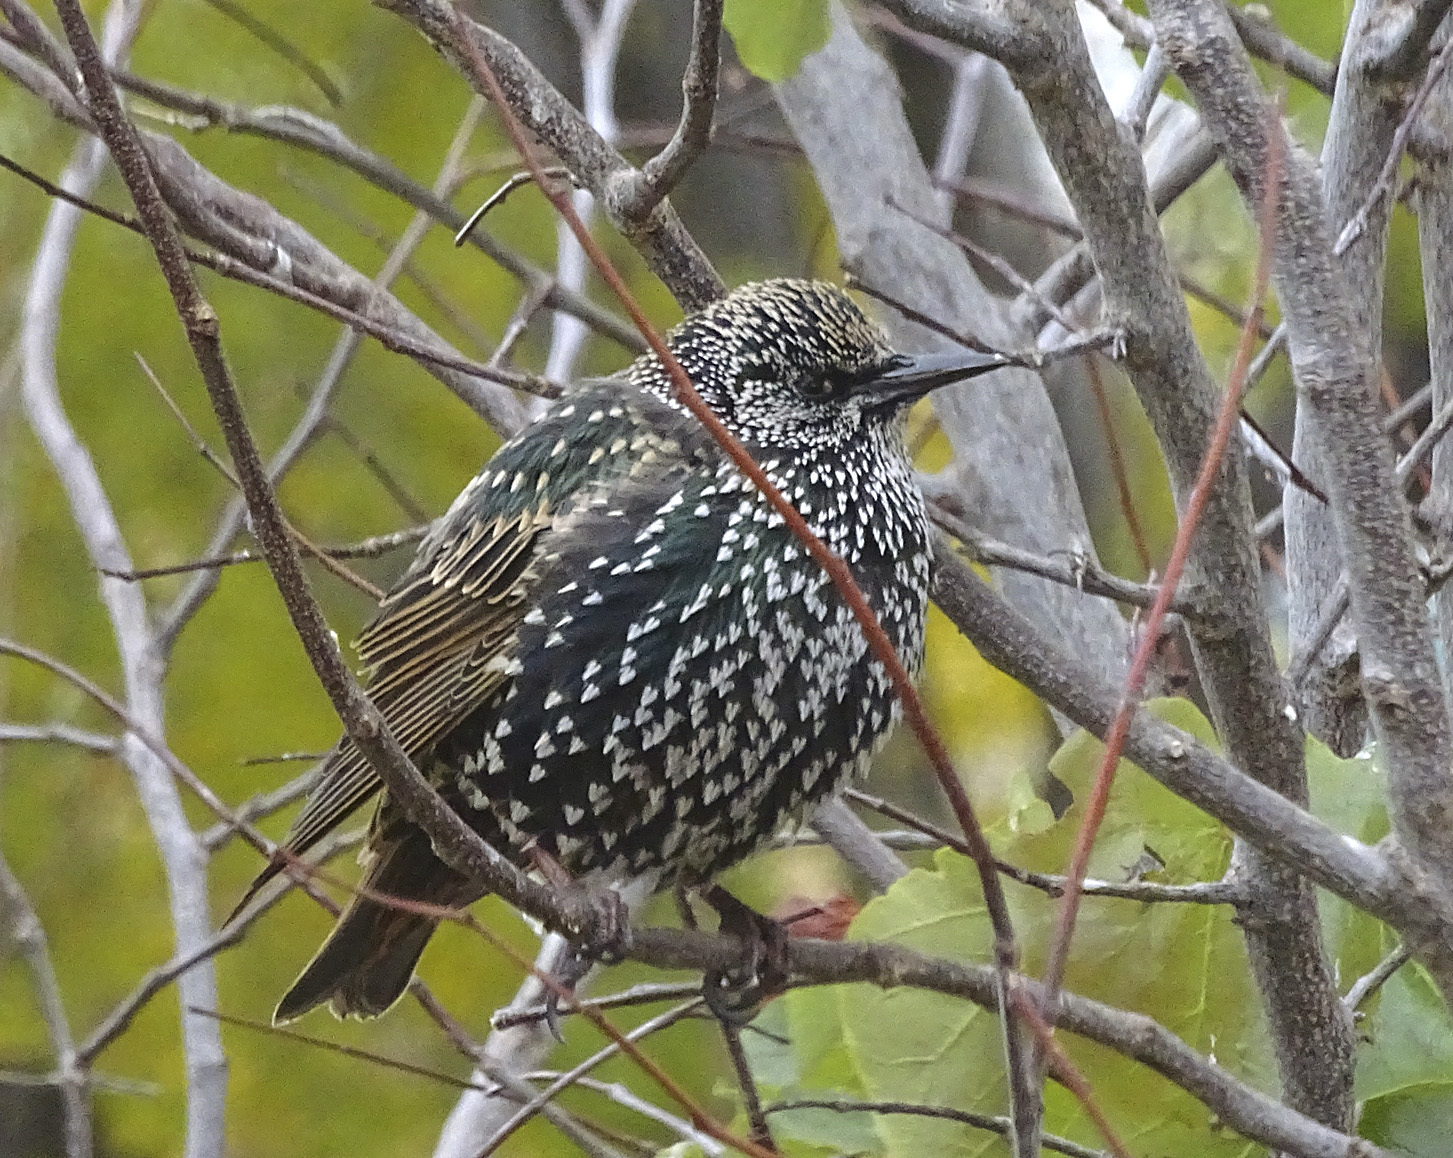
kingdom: Animalia
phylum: Chordata
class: Aves
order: Passeriformes
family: Sturnidae
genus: Sturnus
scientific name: Sturnus vulgaris
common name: Common starling
